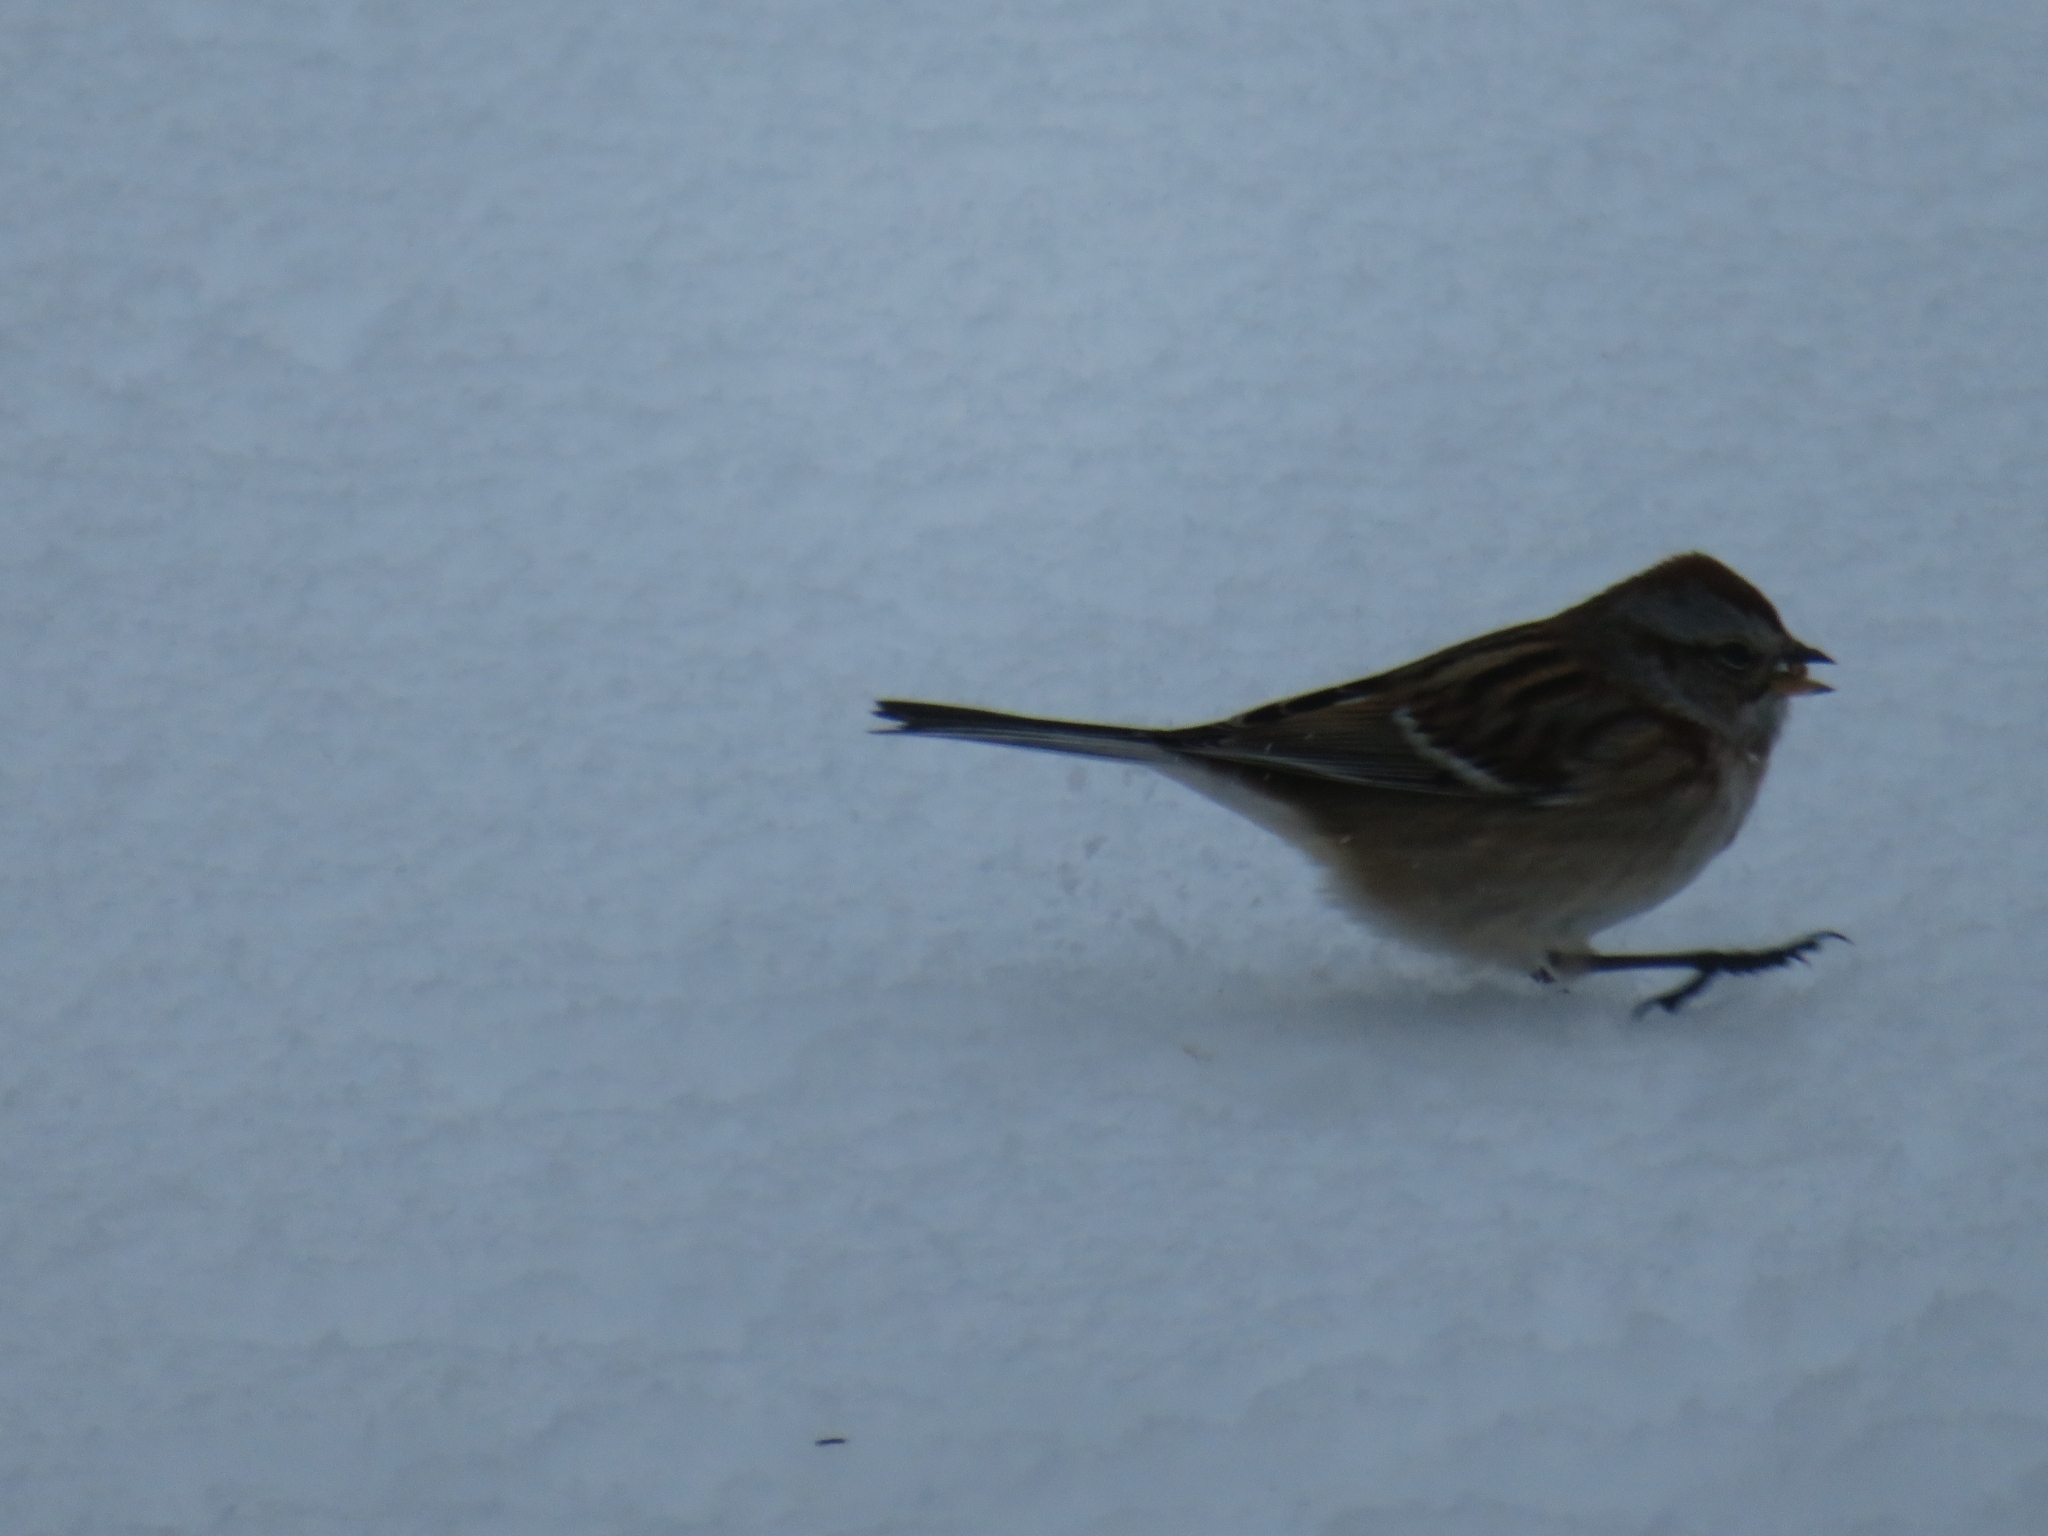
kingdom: Animalia
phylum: Chordata
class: Aves
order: Passeriformes
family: Passerellidae
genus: Spizelloides
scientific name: Spizelloides arborea
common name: American tree sparrow
